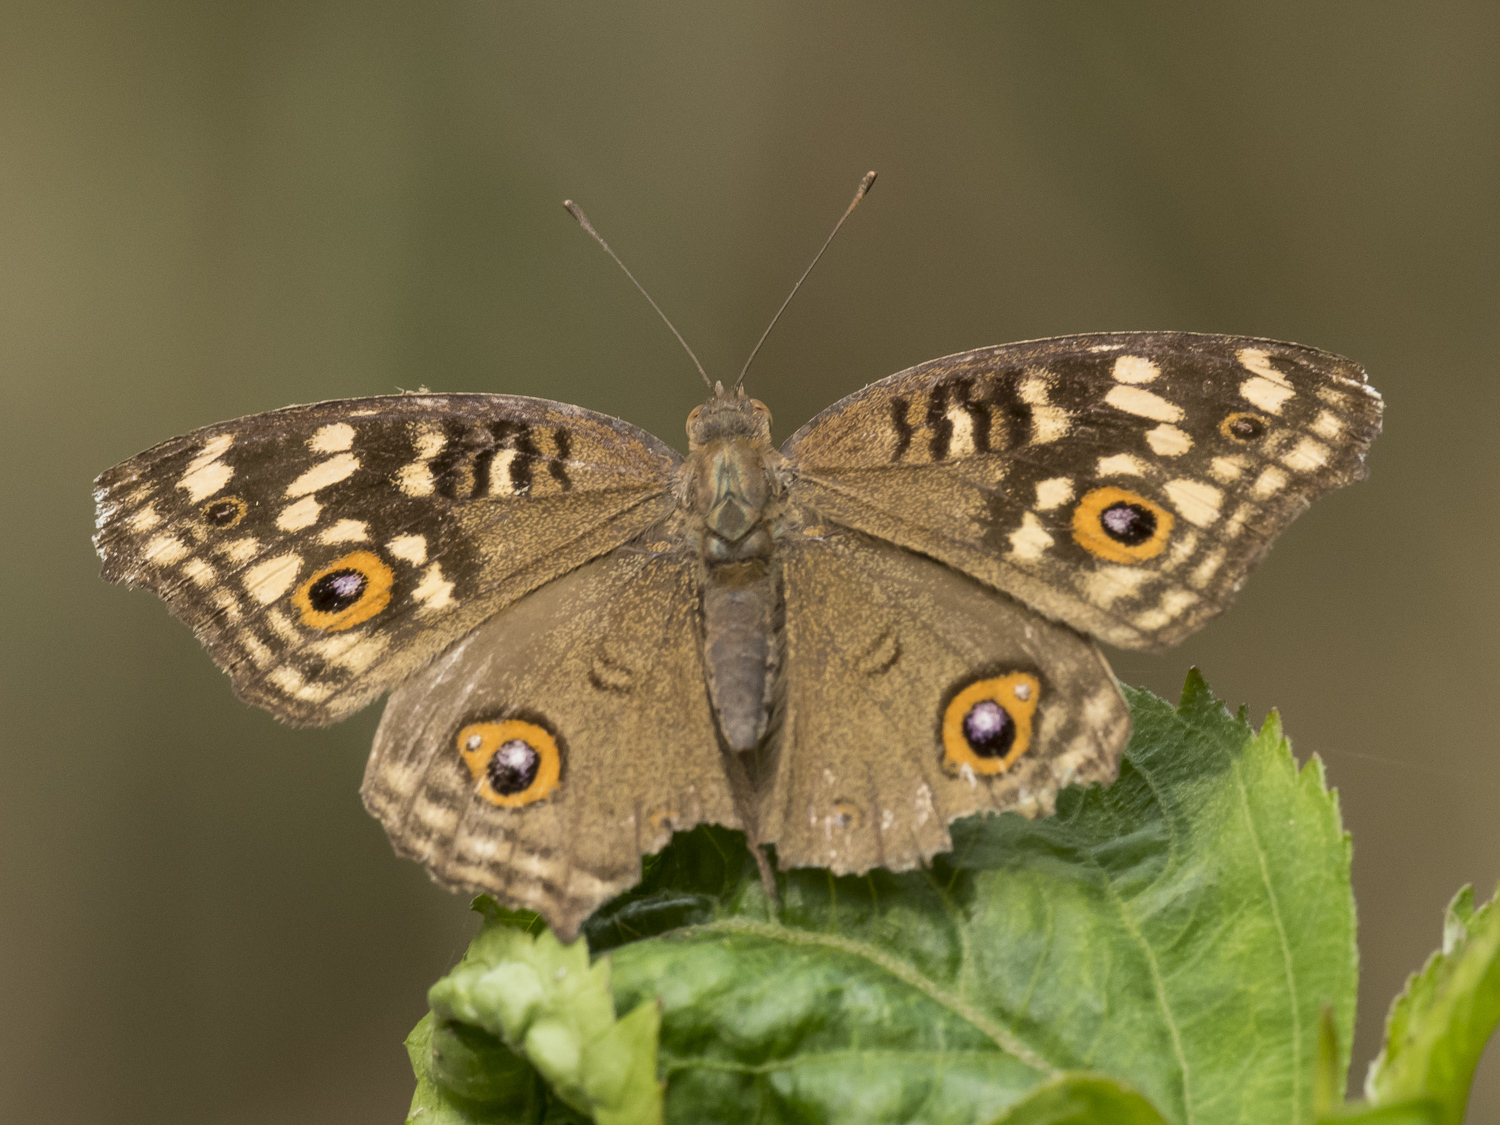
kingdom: Animalia
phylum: Arthropoda
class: Insecta
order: Lepidoptera
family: Nymphalidae
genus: Junonia
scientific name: Junonia lemonias
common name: Lemon pansy
